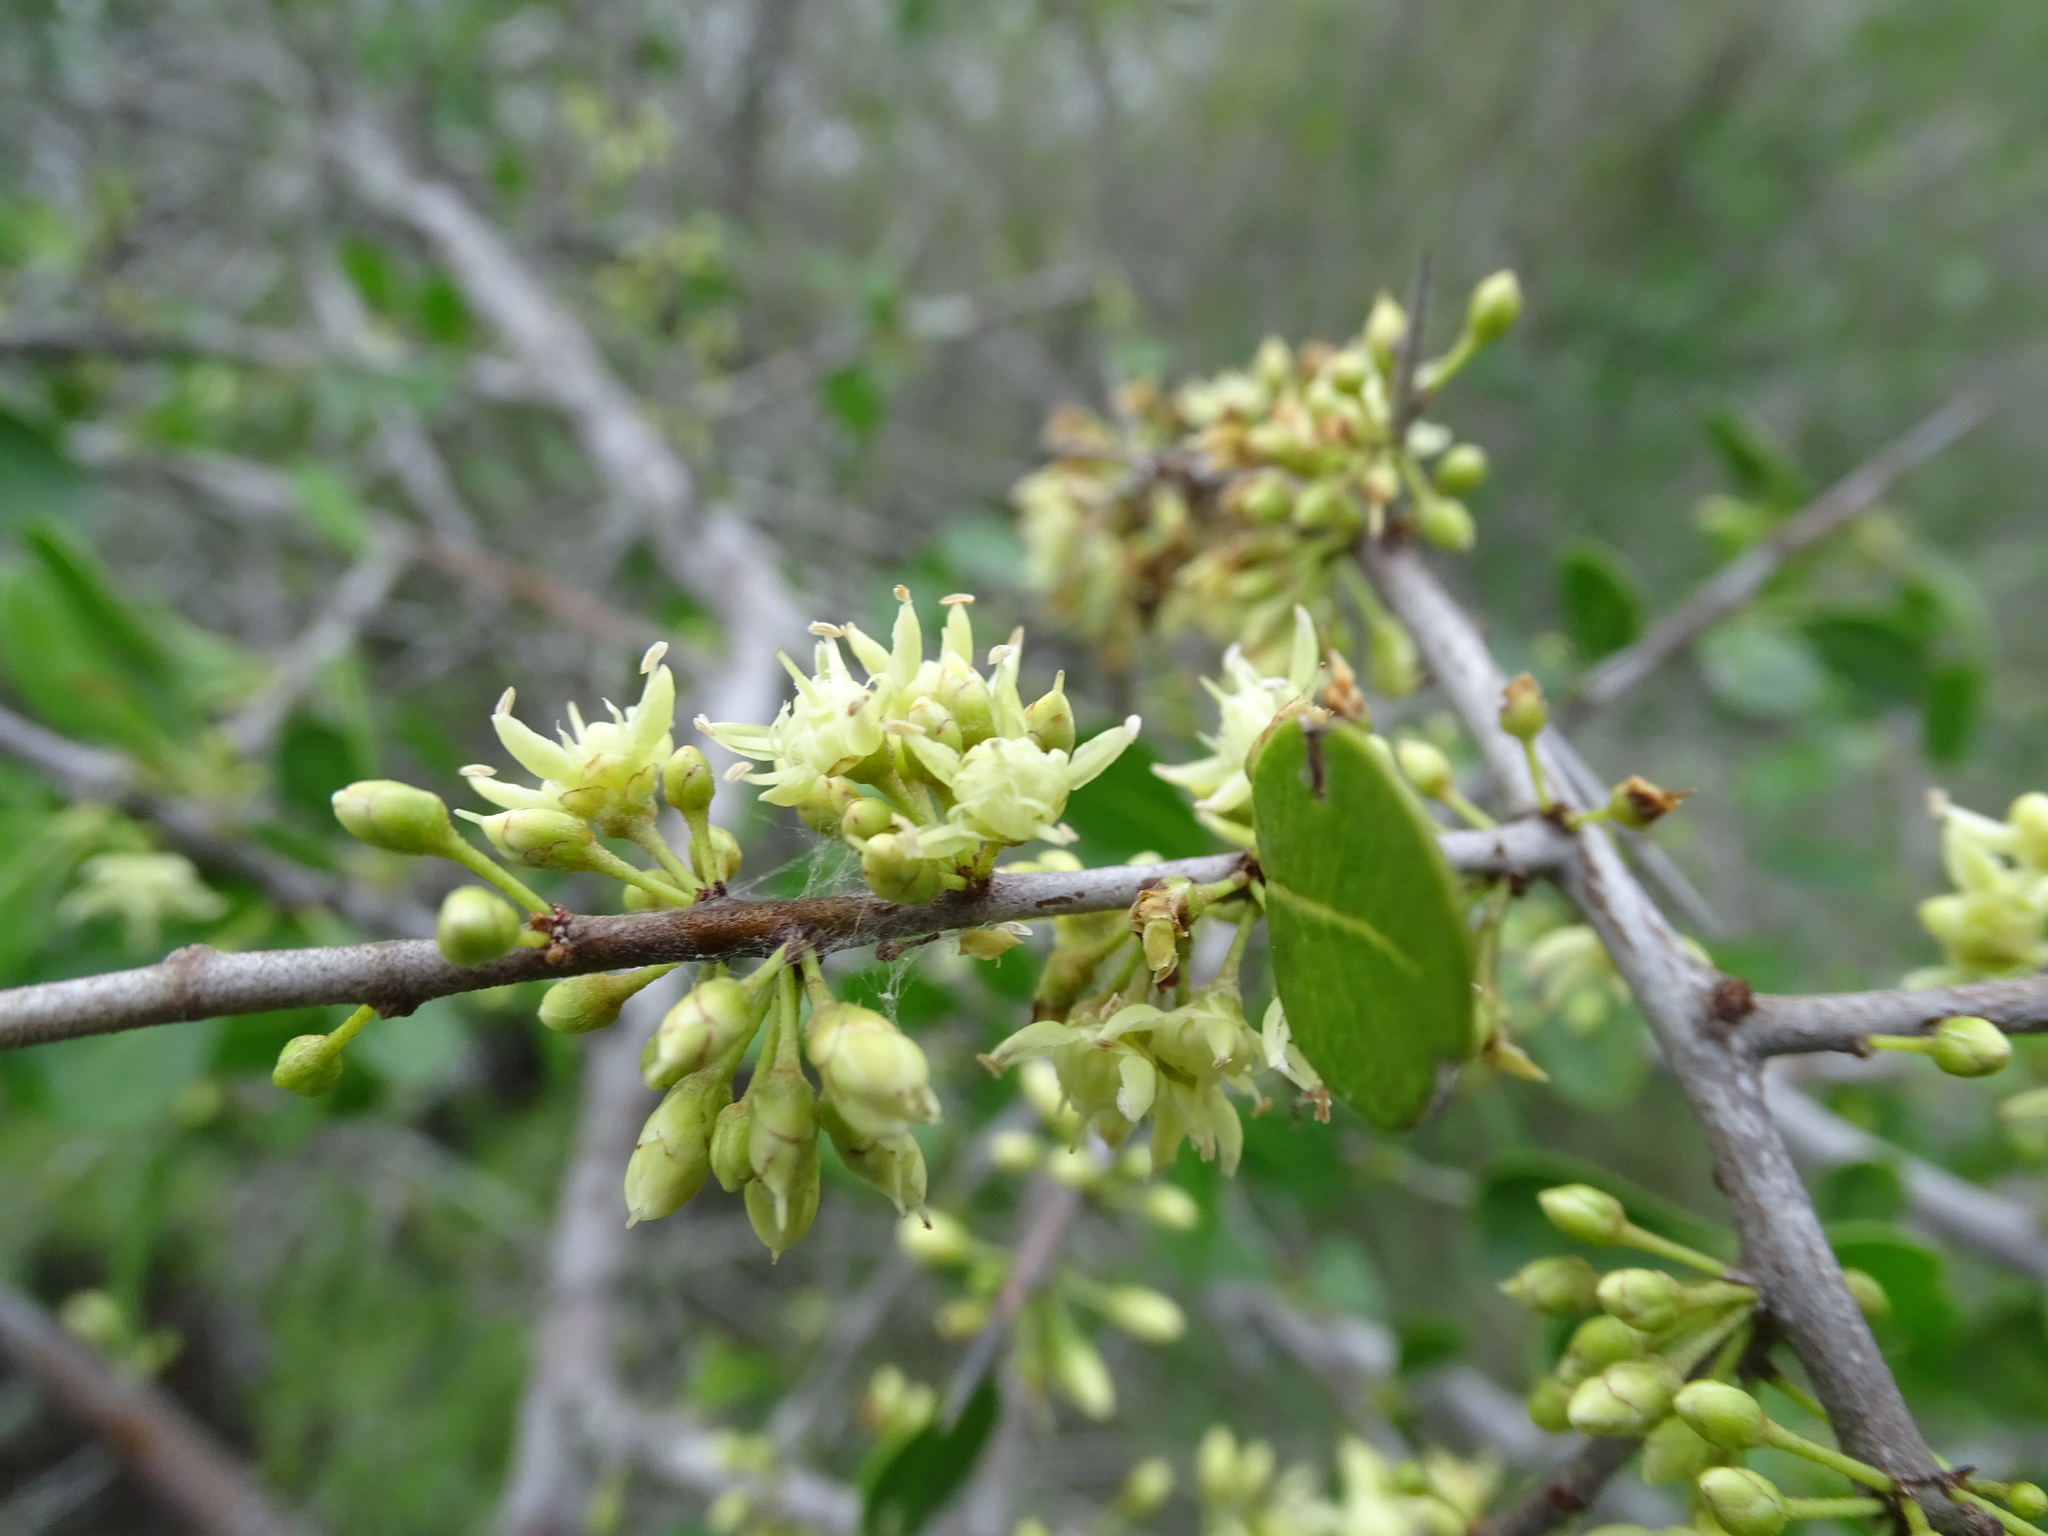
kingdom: Plantae
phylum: Tracheophyta
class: Magnoliopsida
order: Ericales
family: Sapotaceae
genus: Sideroxylon
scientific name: Sideroxylon celastrinum
